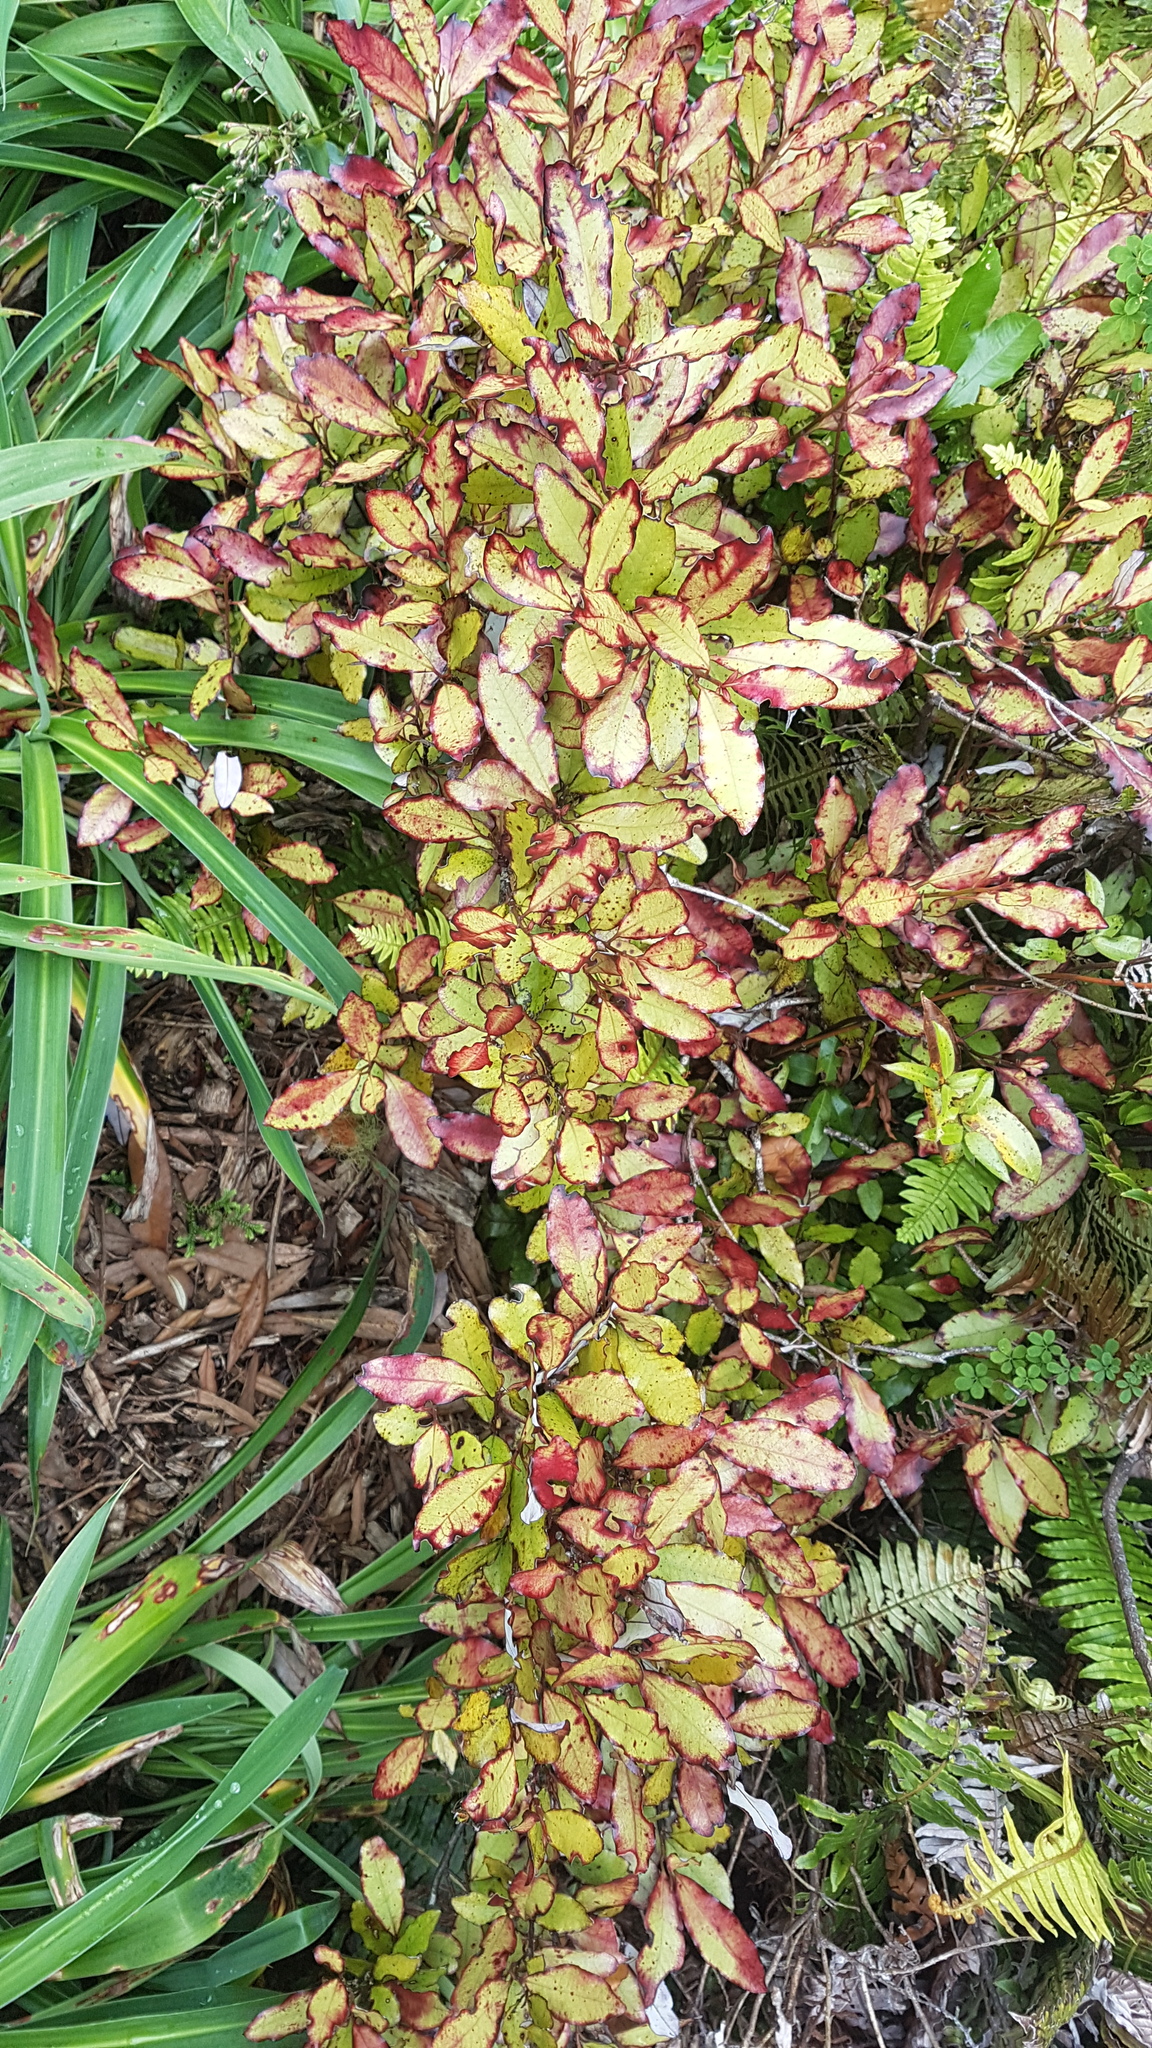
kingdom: Plantae
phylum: Tracheophyta
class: Magnoliopsida
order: Canellales
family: Winteraceae
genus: Pseudowintera
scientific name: Pseudowintera colorata
